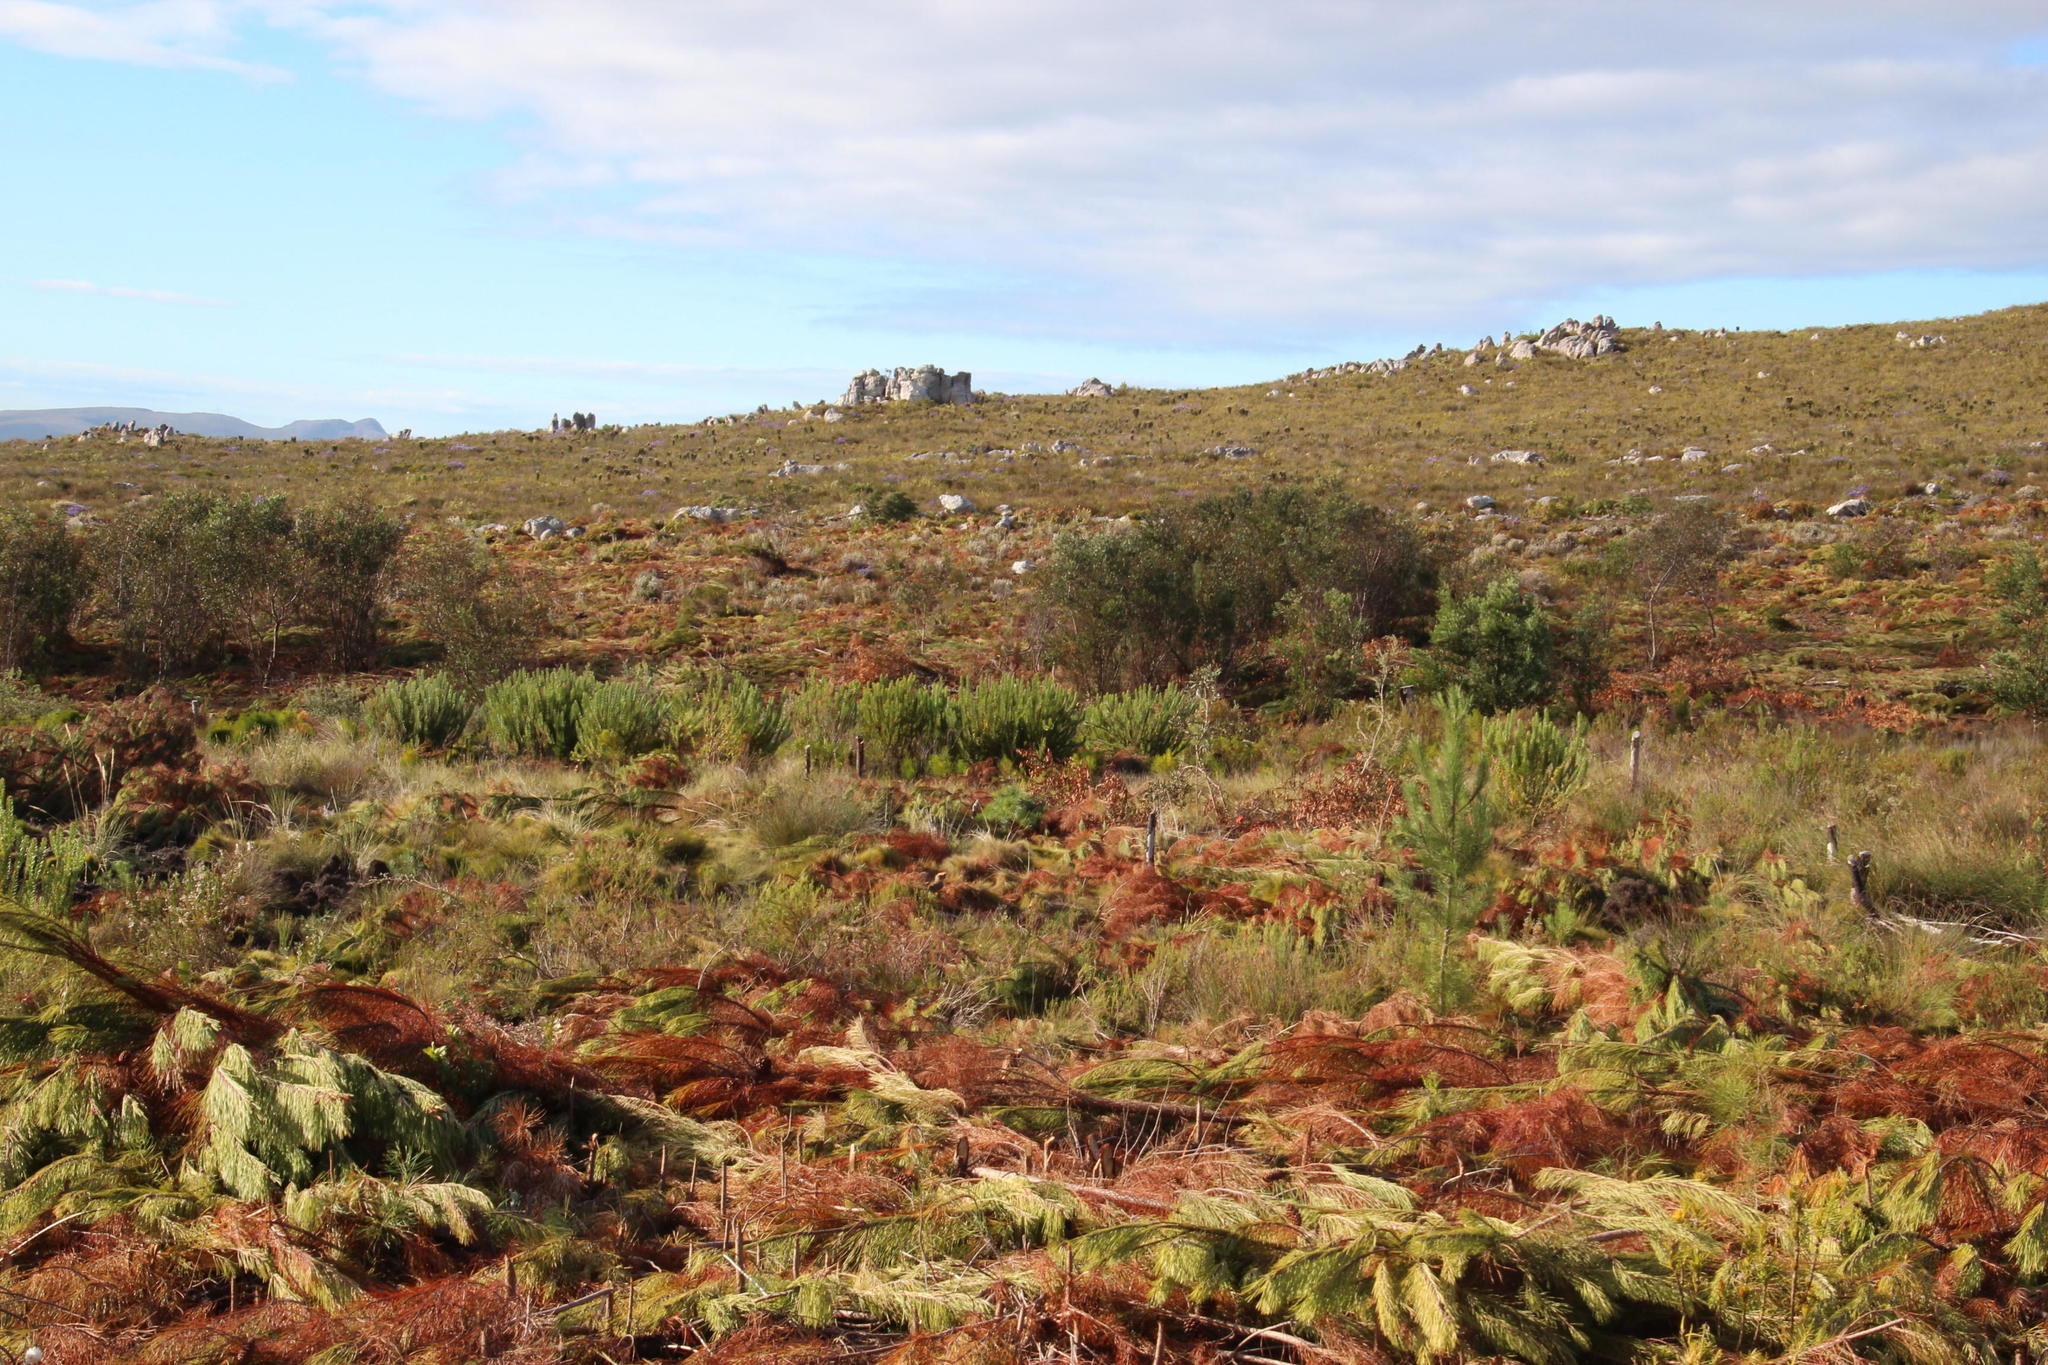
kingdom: Plantae
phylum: Tracheophyta
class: Magnoliopsida
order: Proteales
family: Proteaceae
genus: Mimetes
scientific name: Mimetes hirtus
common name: Marsh pagoda
